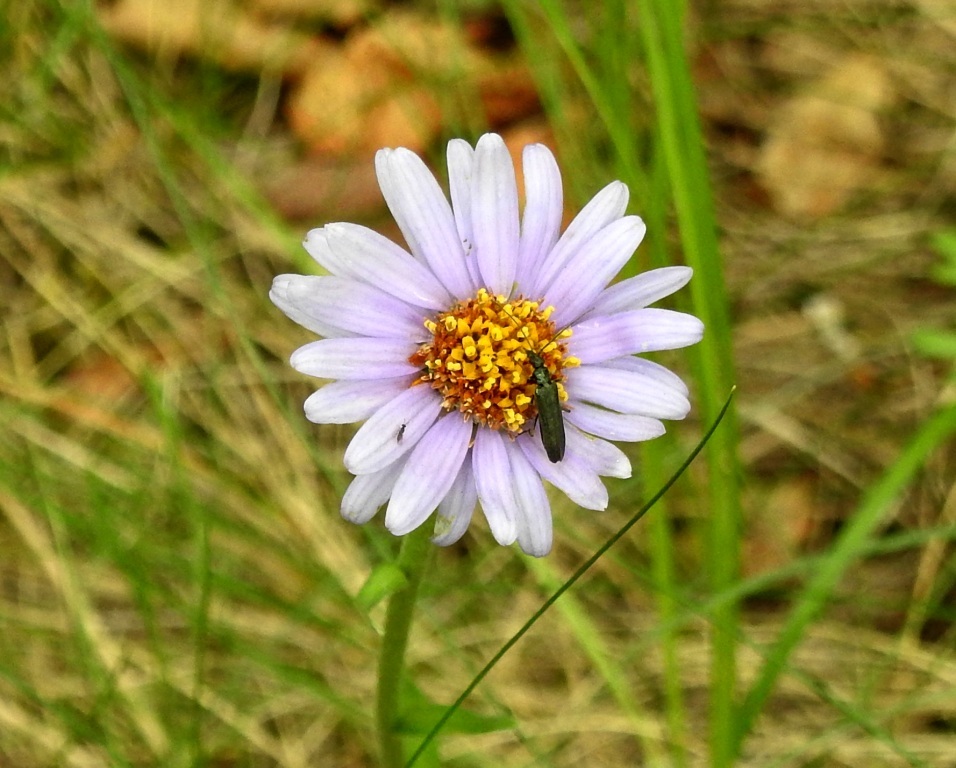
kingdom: Plantae
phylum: Tracheophyta
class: Magnoliopsida
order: Asterales
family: Asteraceae
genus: Aster
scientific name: Aster alpinus
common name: Alpine aster
